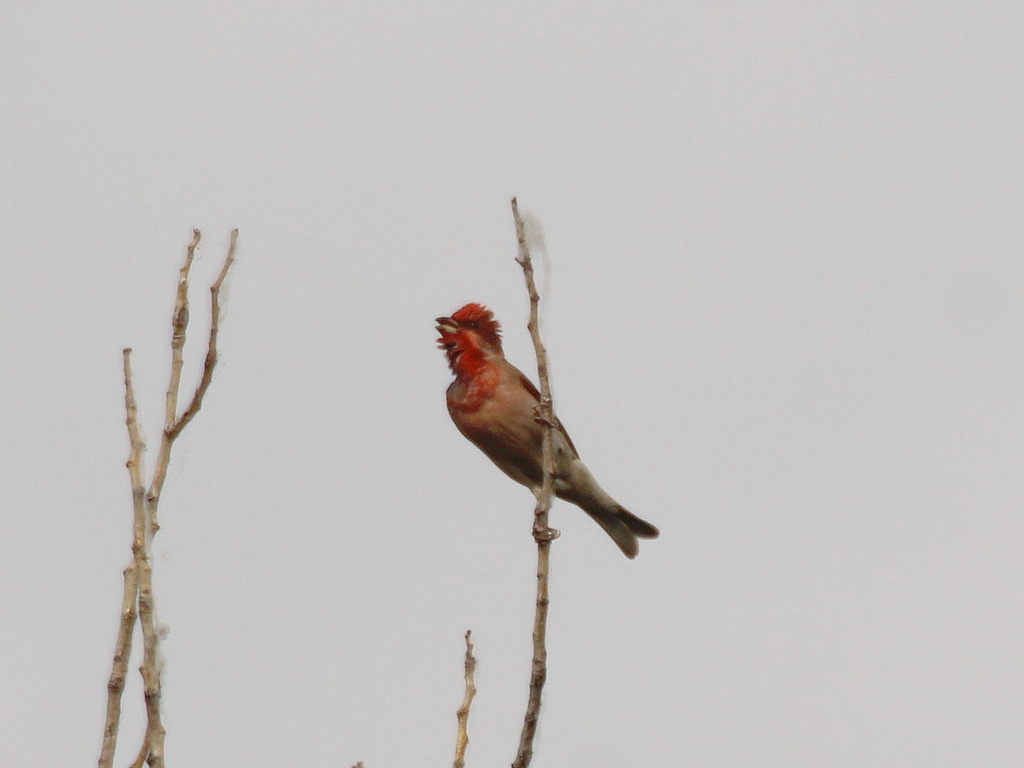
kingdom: Animalia
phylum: Chordata
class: Aves
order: Passeriformes
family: Fringillidae
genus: Carpodacus
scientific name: Carpodacus erythrinus
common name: Common rosefinch
